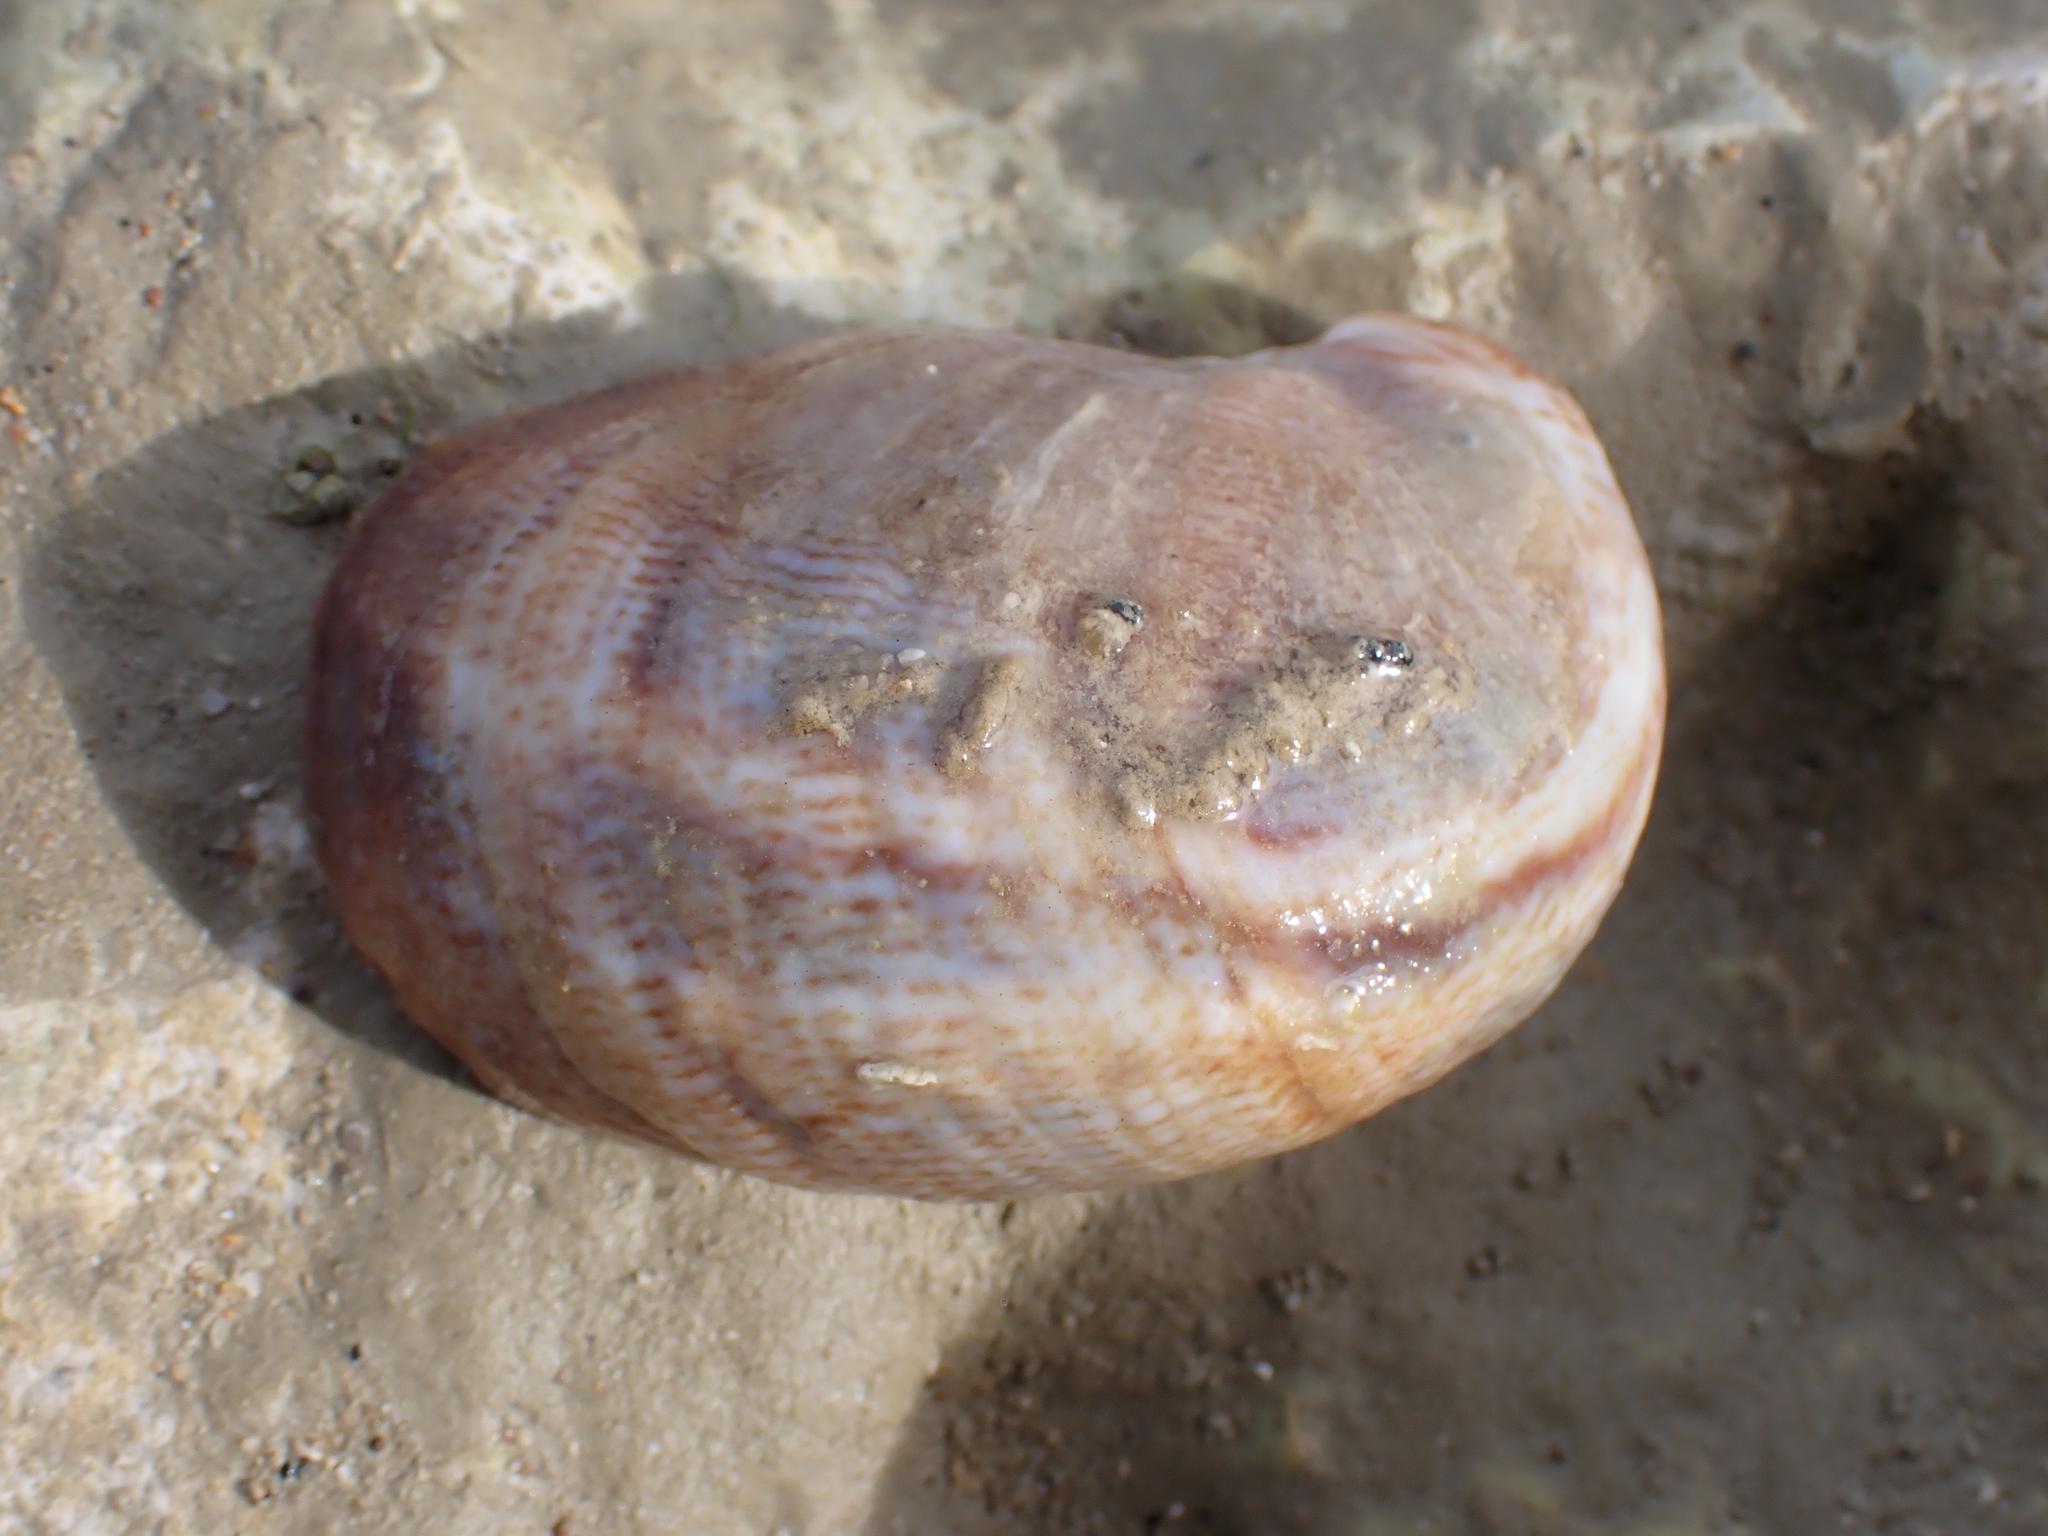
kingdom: Animalia
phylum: Mollusca
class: Gastropoda
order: Littorinimorpha
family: Calyptraeidae
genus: Crepidula
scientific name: Crepidula fornicata
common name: Slipper limpet
